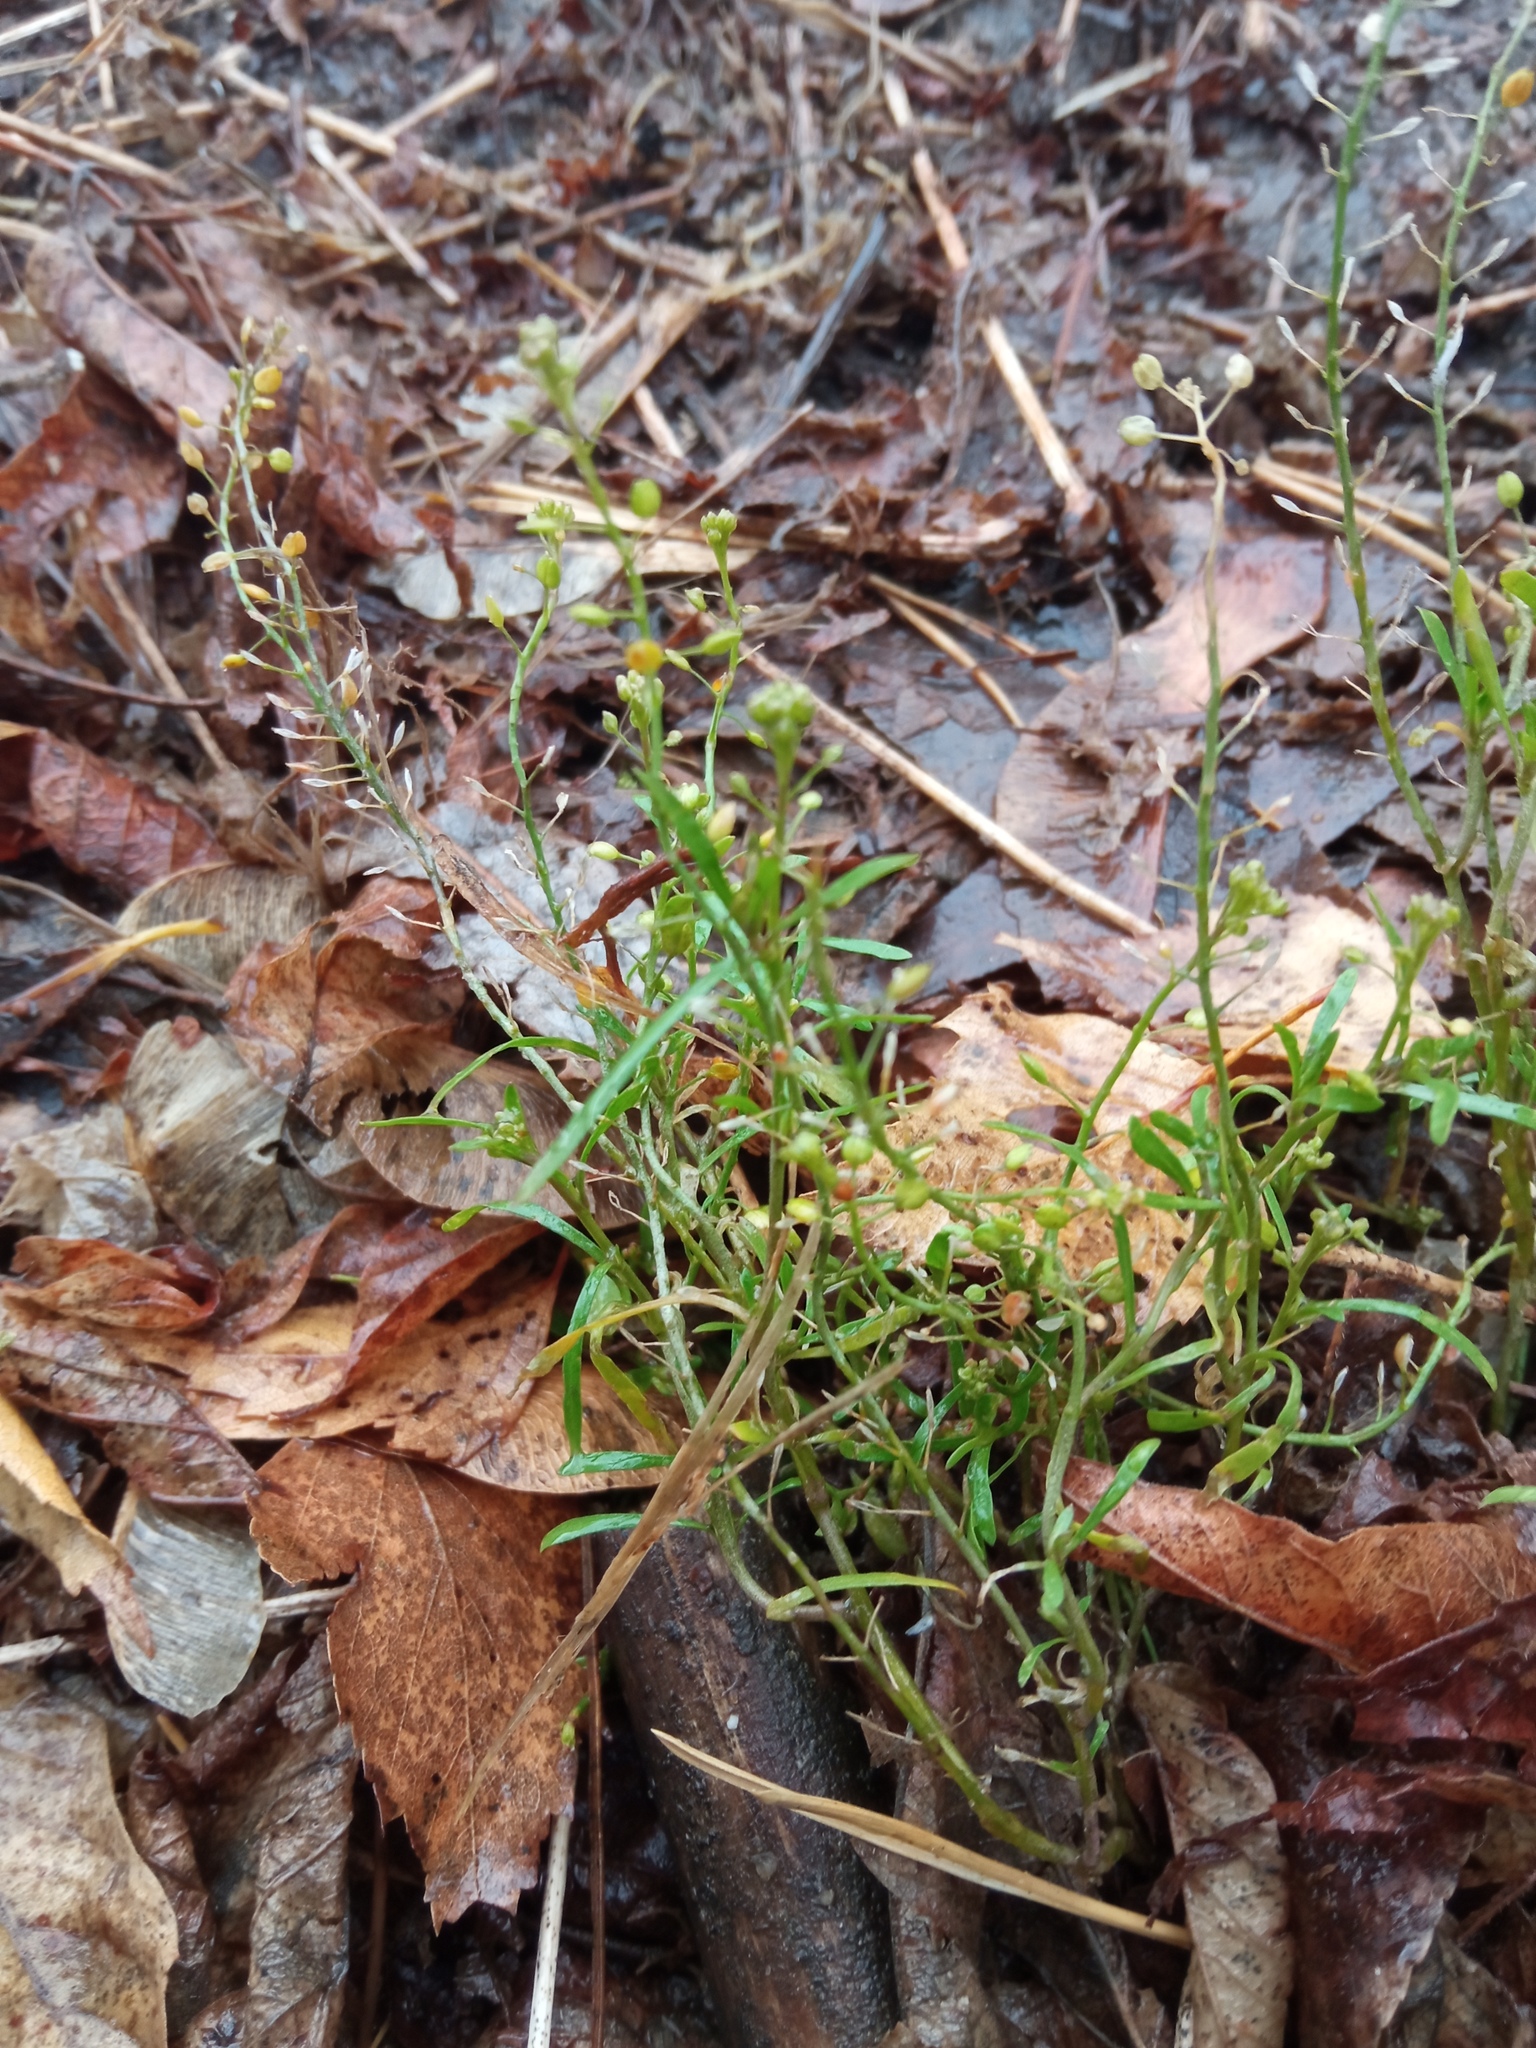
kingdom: Plantae
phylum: Tracheophyta
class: Magnoliopsida
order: Brassicales
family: Brassicaceae
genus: Lepidium
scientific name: Lepidium ruderale
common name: Narrow-leaved pepperwort
